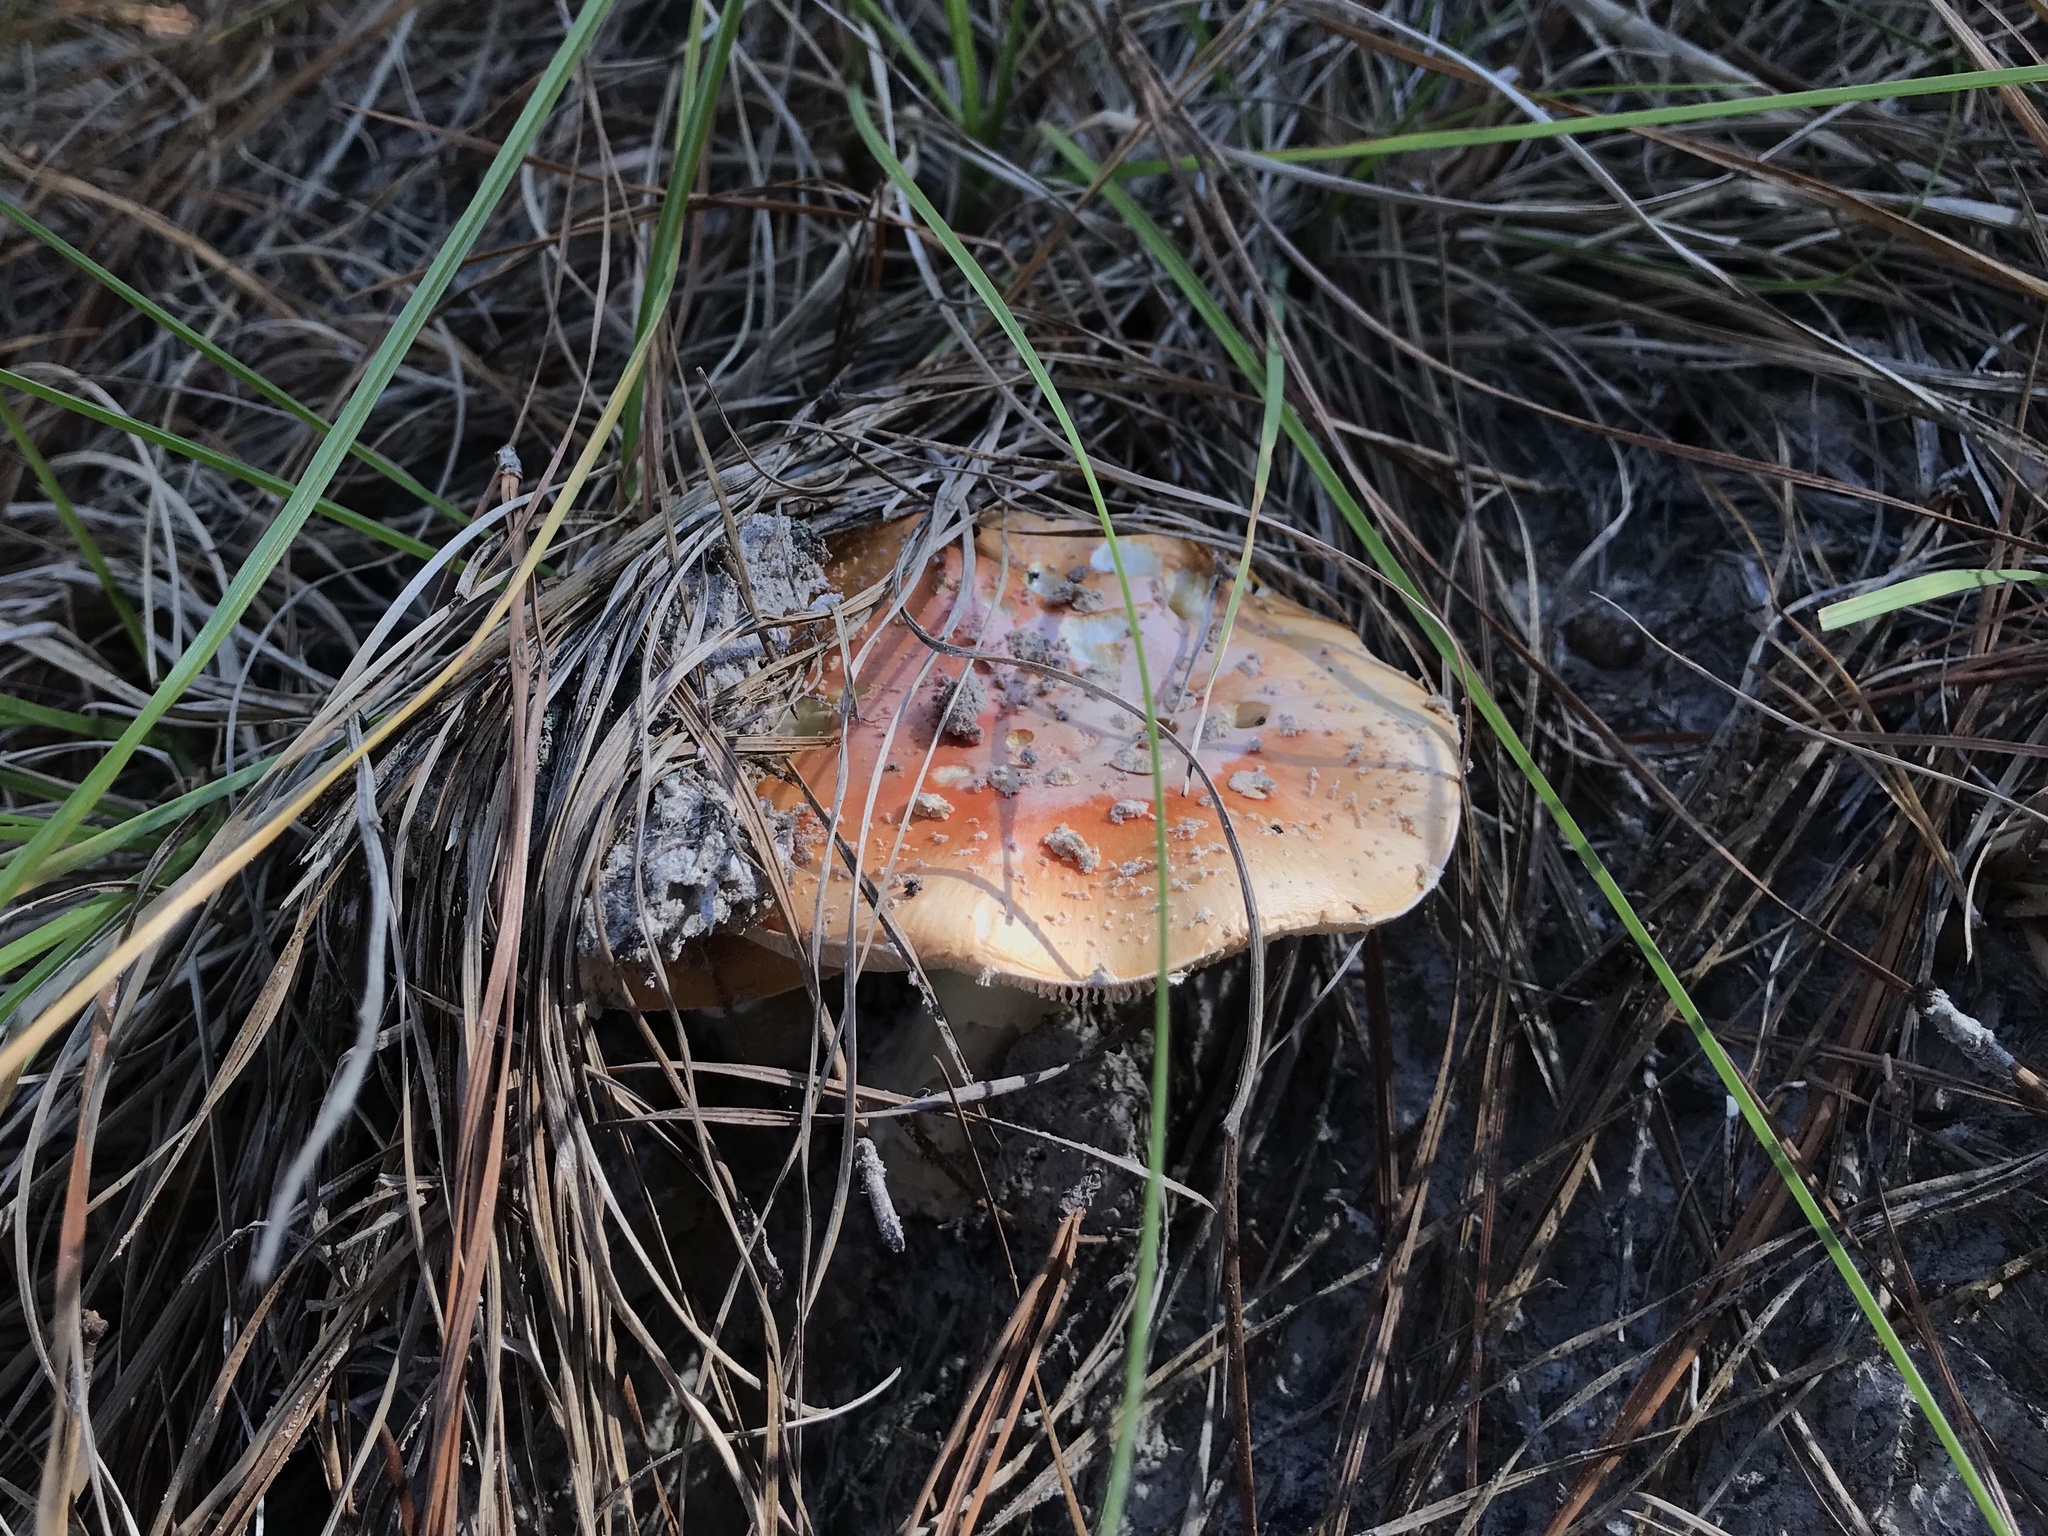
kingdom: Fungi
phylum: Basidiomycota
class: Agaricomycetes
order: Agaricales
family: Amanitaceae
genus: Amanita
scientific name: Amanita persicina
